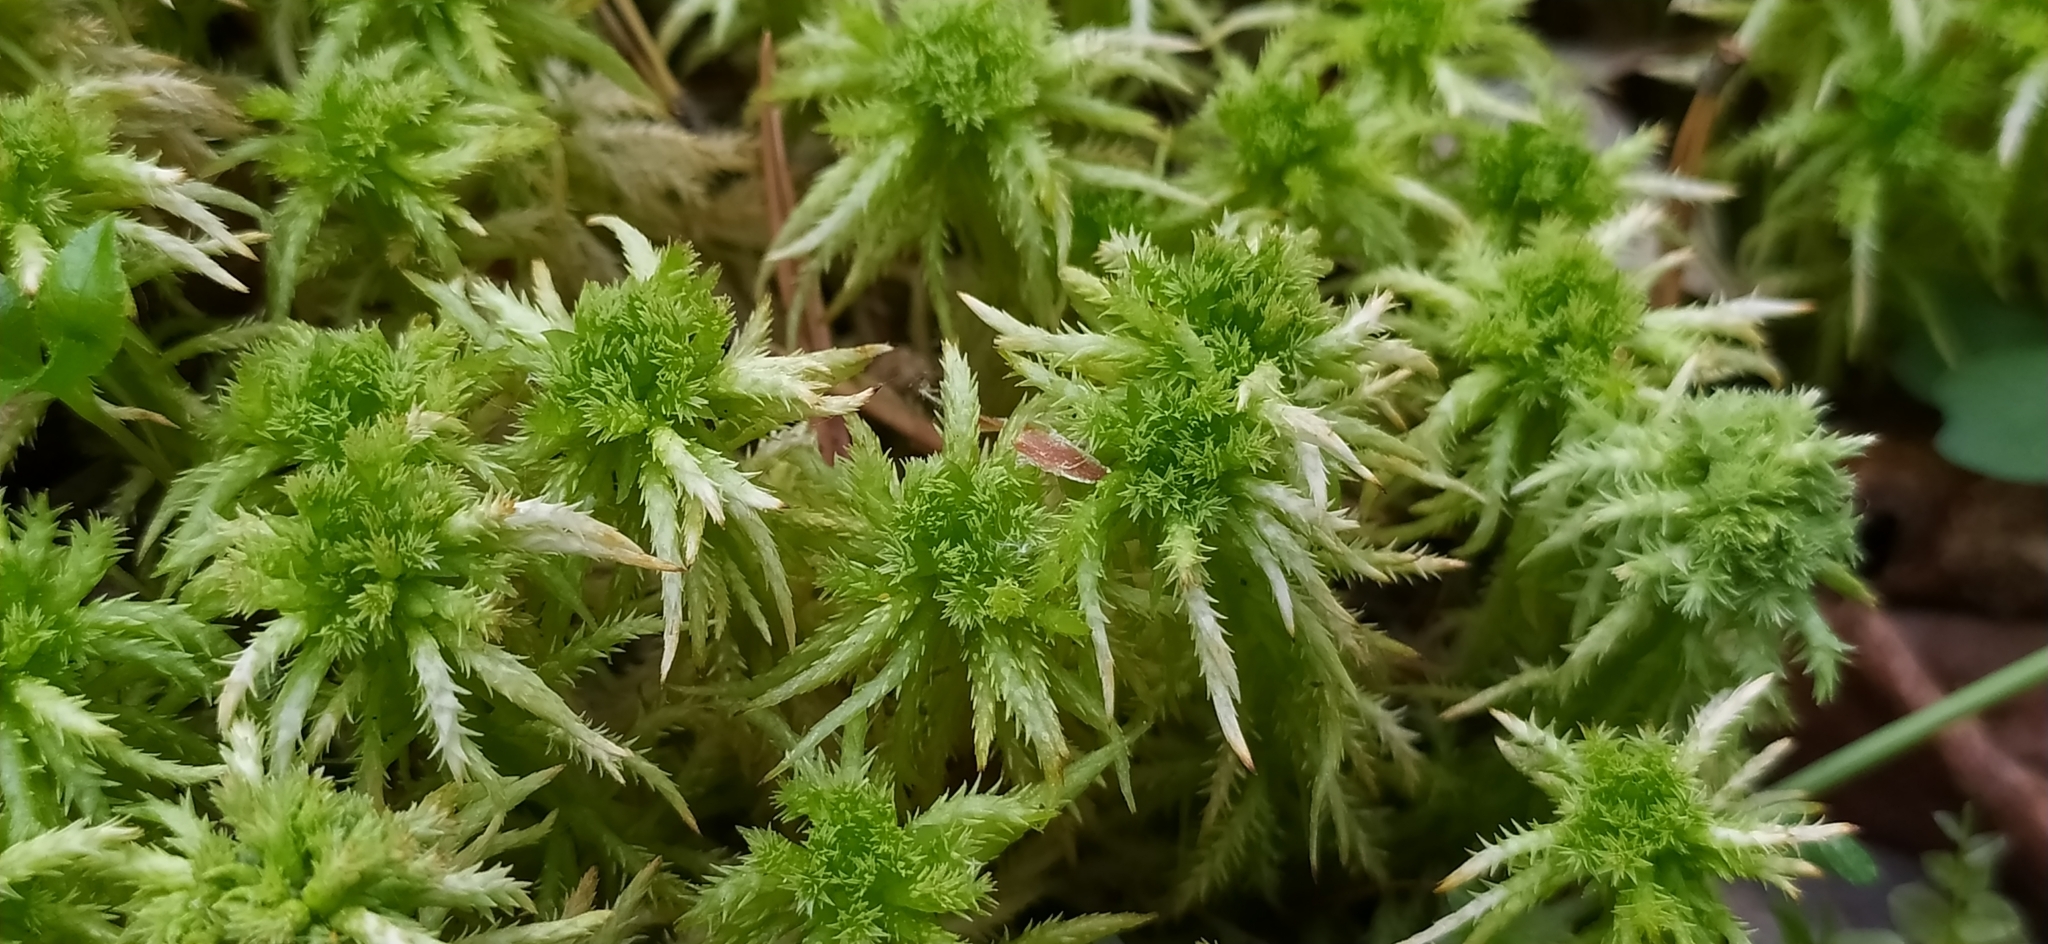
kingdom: Plantae
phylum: Bryophyta
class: Sphagnopsida
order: Sphagnales
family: Sphagnaceae
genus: Sphagnum
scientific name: Sphagnum squarrosum
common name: Shaggy peat moss
